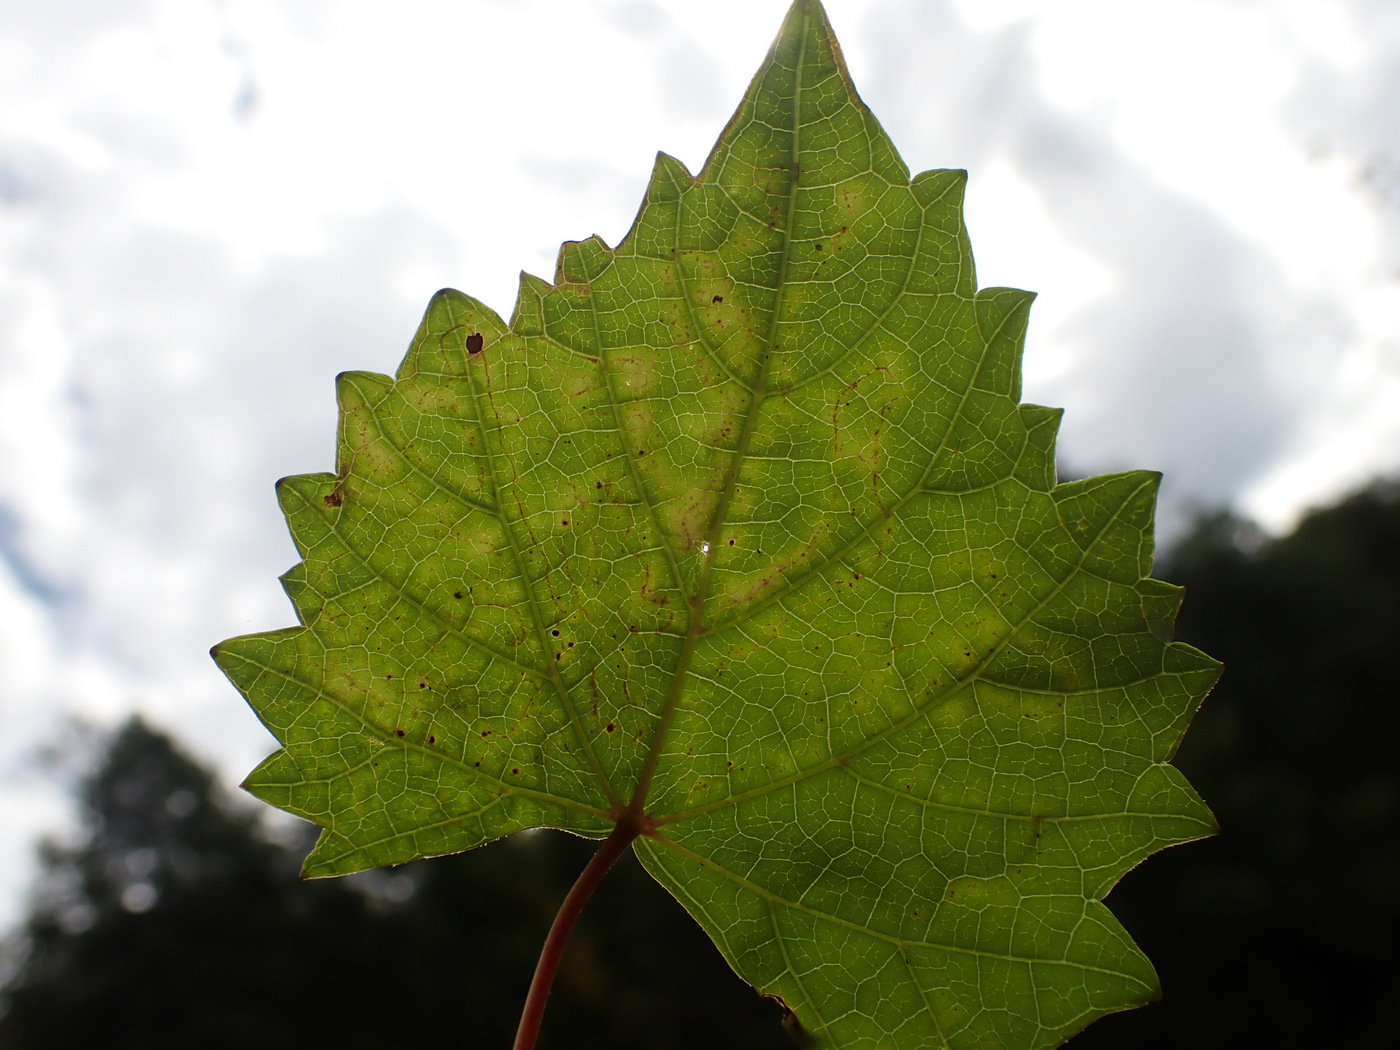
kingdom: Animalia
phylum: Arthropoda
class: Insecta
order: Lepidoptera
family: Gracillariidae
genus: Phyllocnistis
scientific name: Phyllocnistis vitegenella
